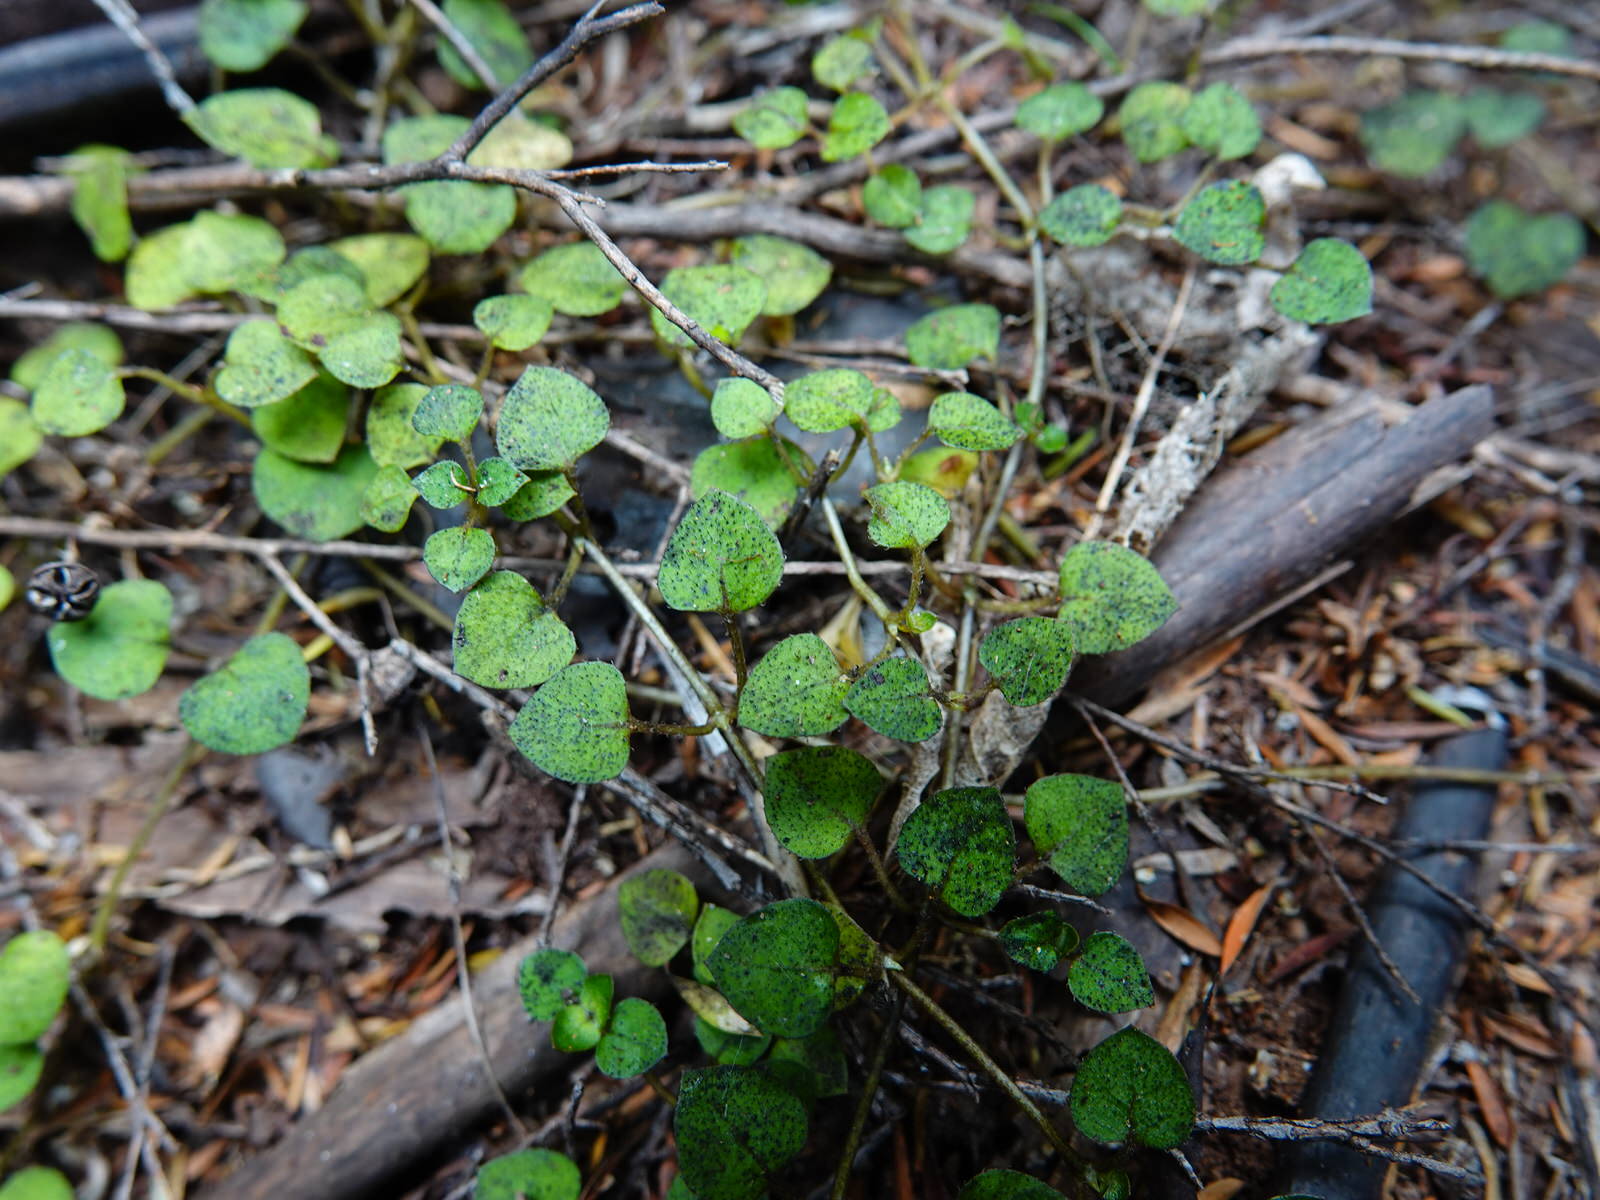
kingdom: Plantae
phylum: Tracheophyta
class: Magnoliopsida
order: Gentianales
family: Rubiaceae
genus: Nertera
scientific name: Nertera dichondrifolia
